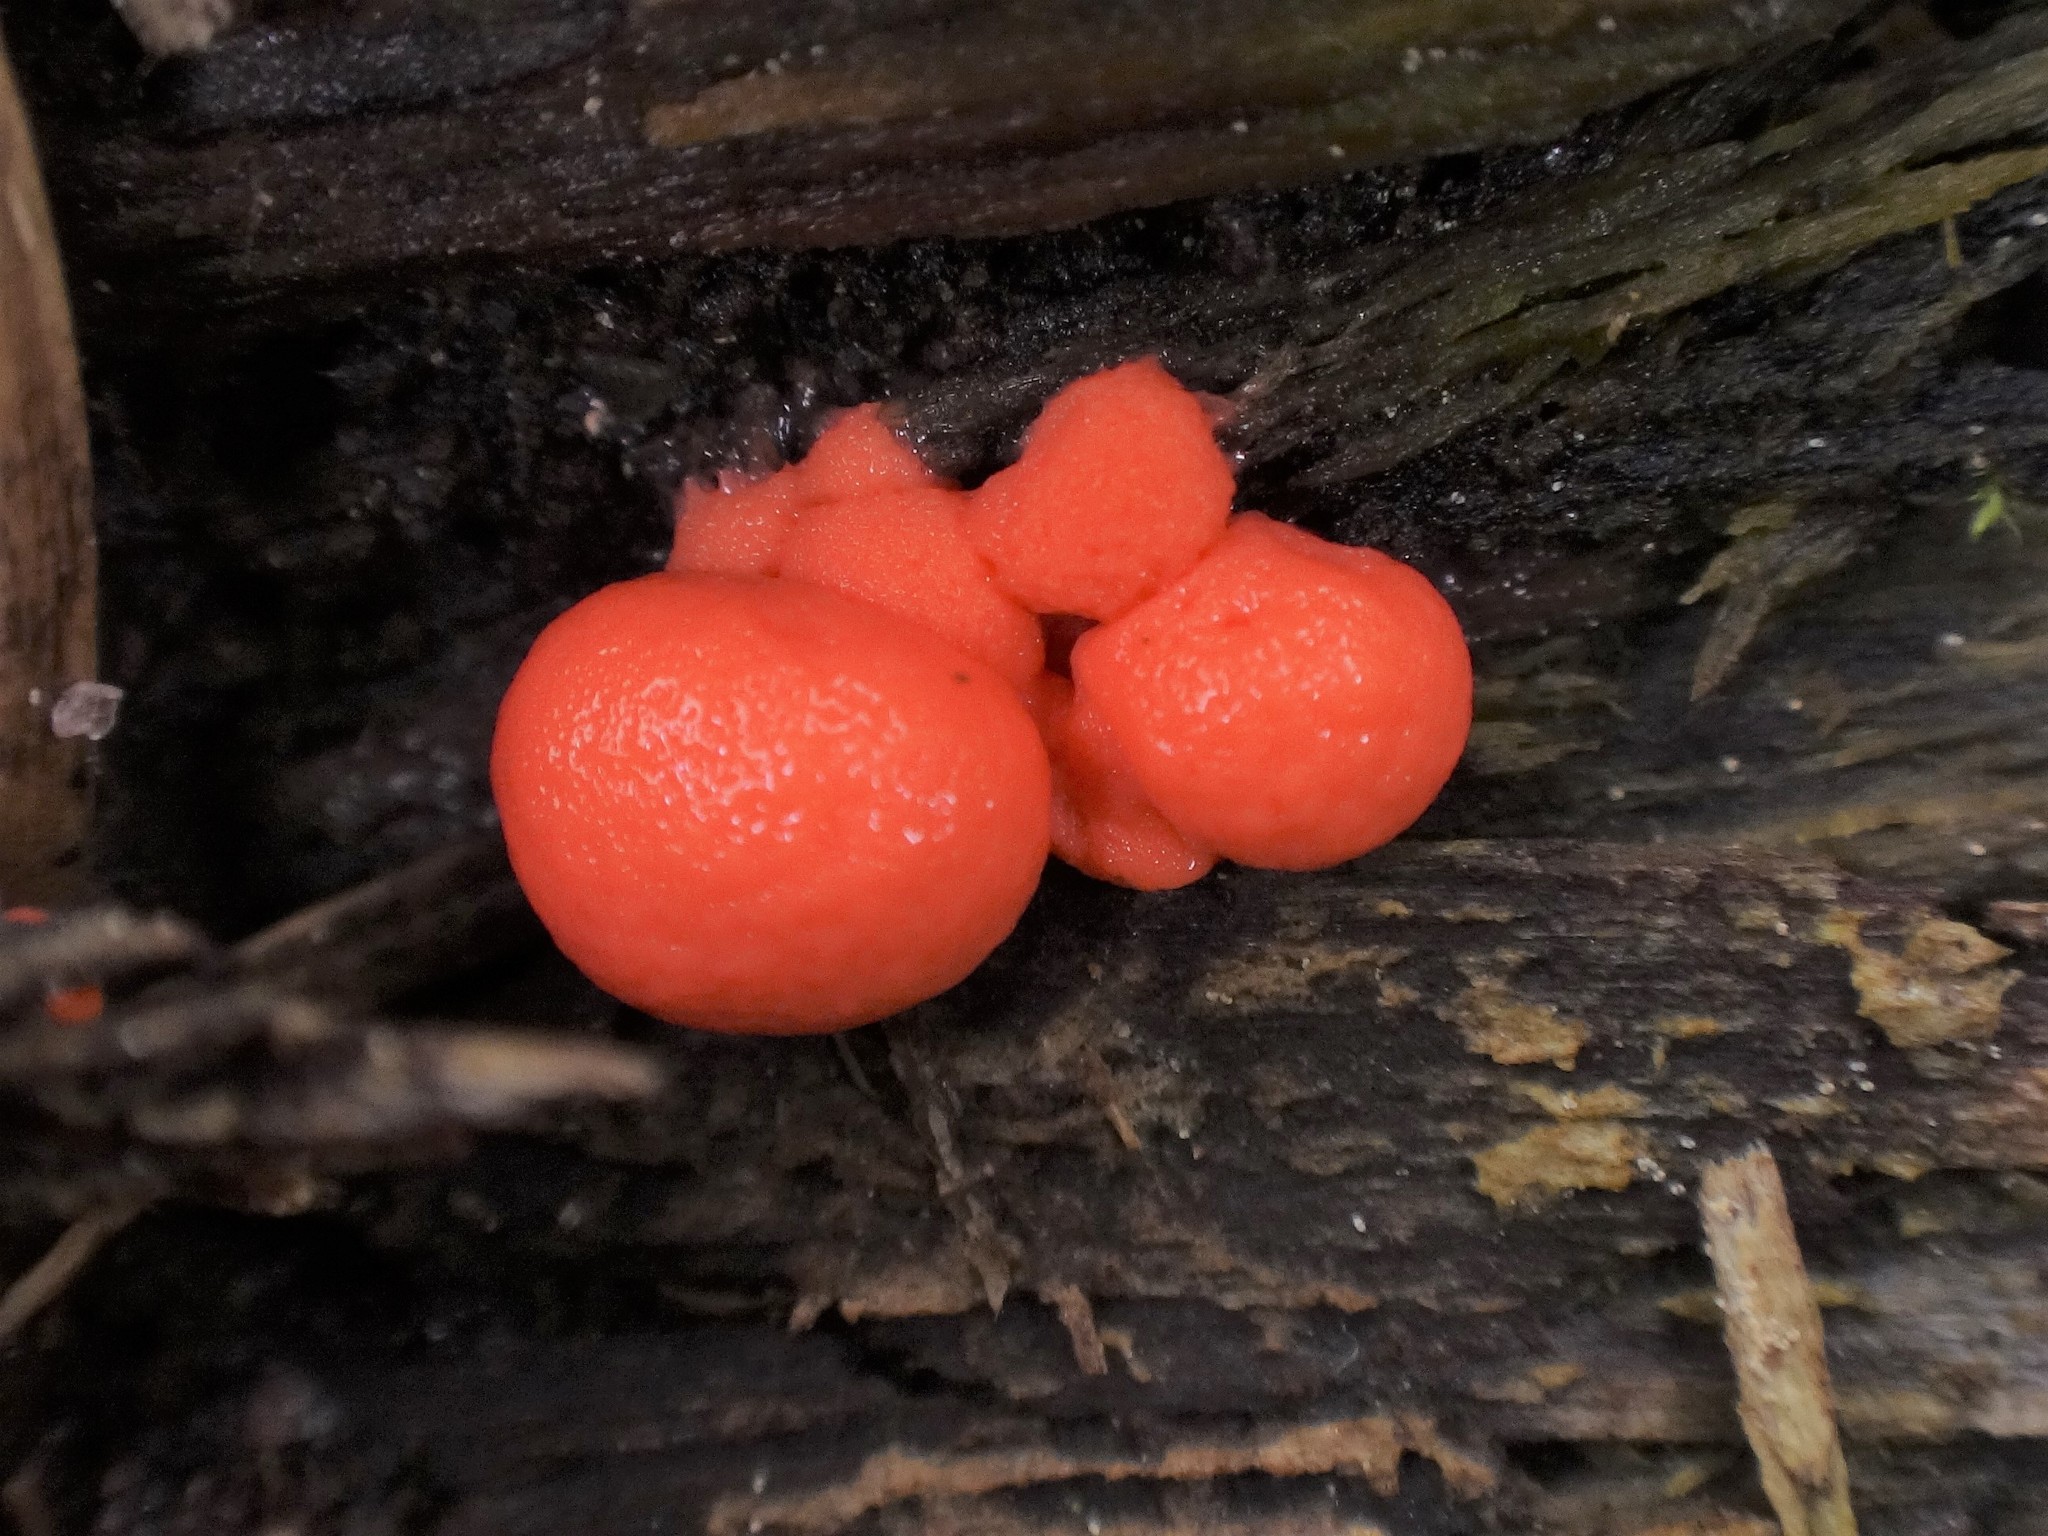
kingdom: Protozoa
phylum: Mycetozoa
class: Myxomycetes
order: Cribrariales
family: Tubiferaceae
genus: Lycogala
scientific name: Lycogala epidendrum
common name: Wolf's milk
